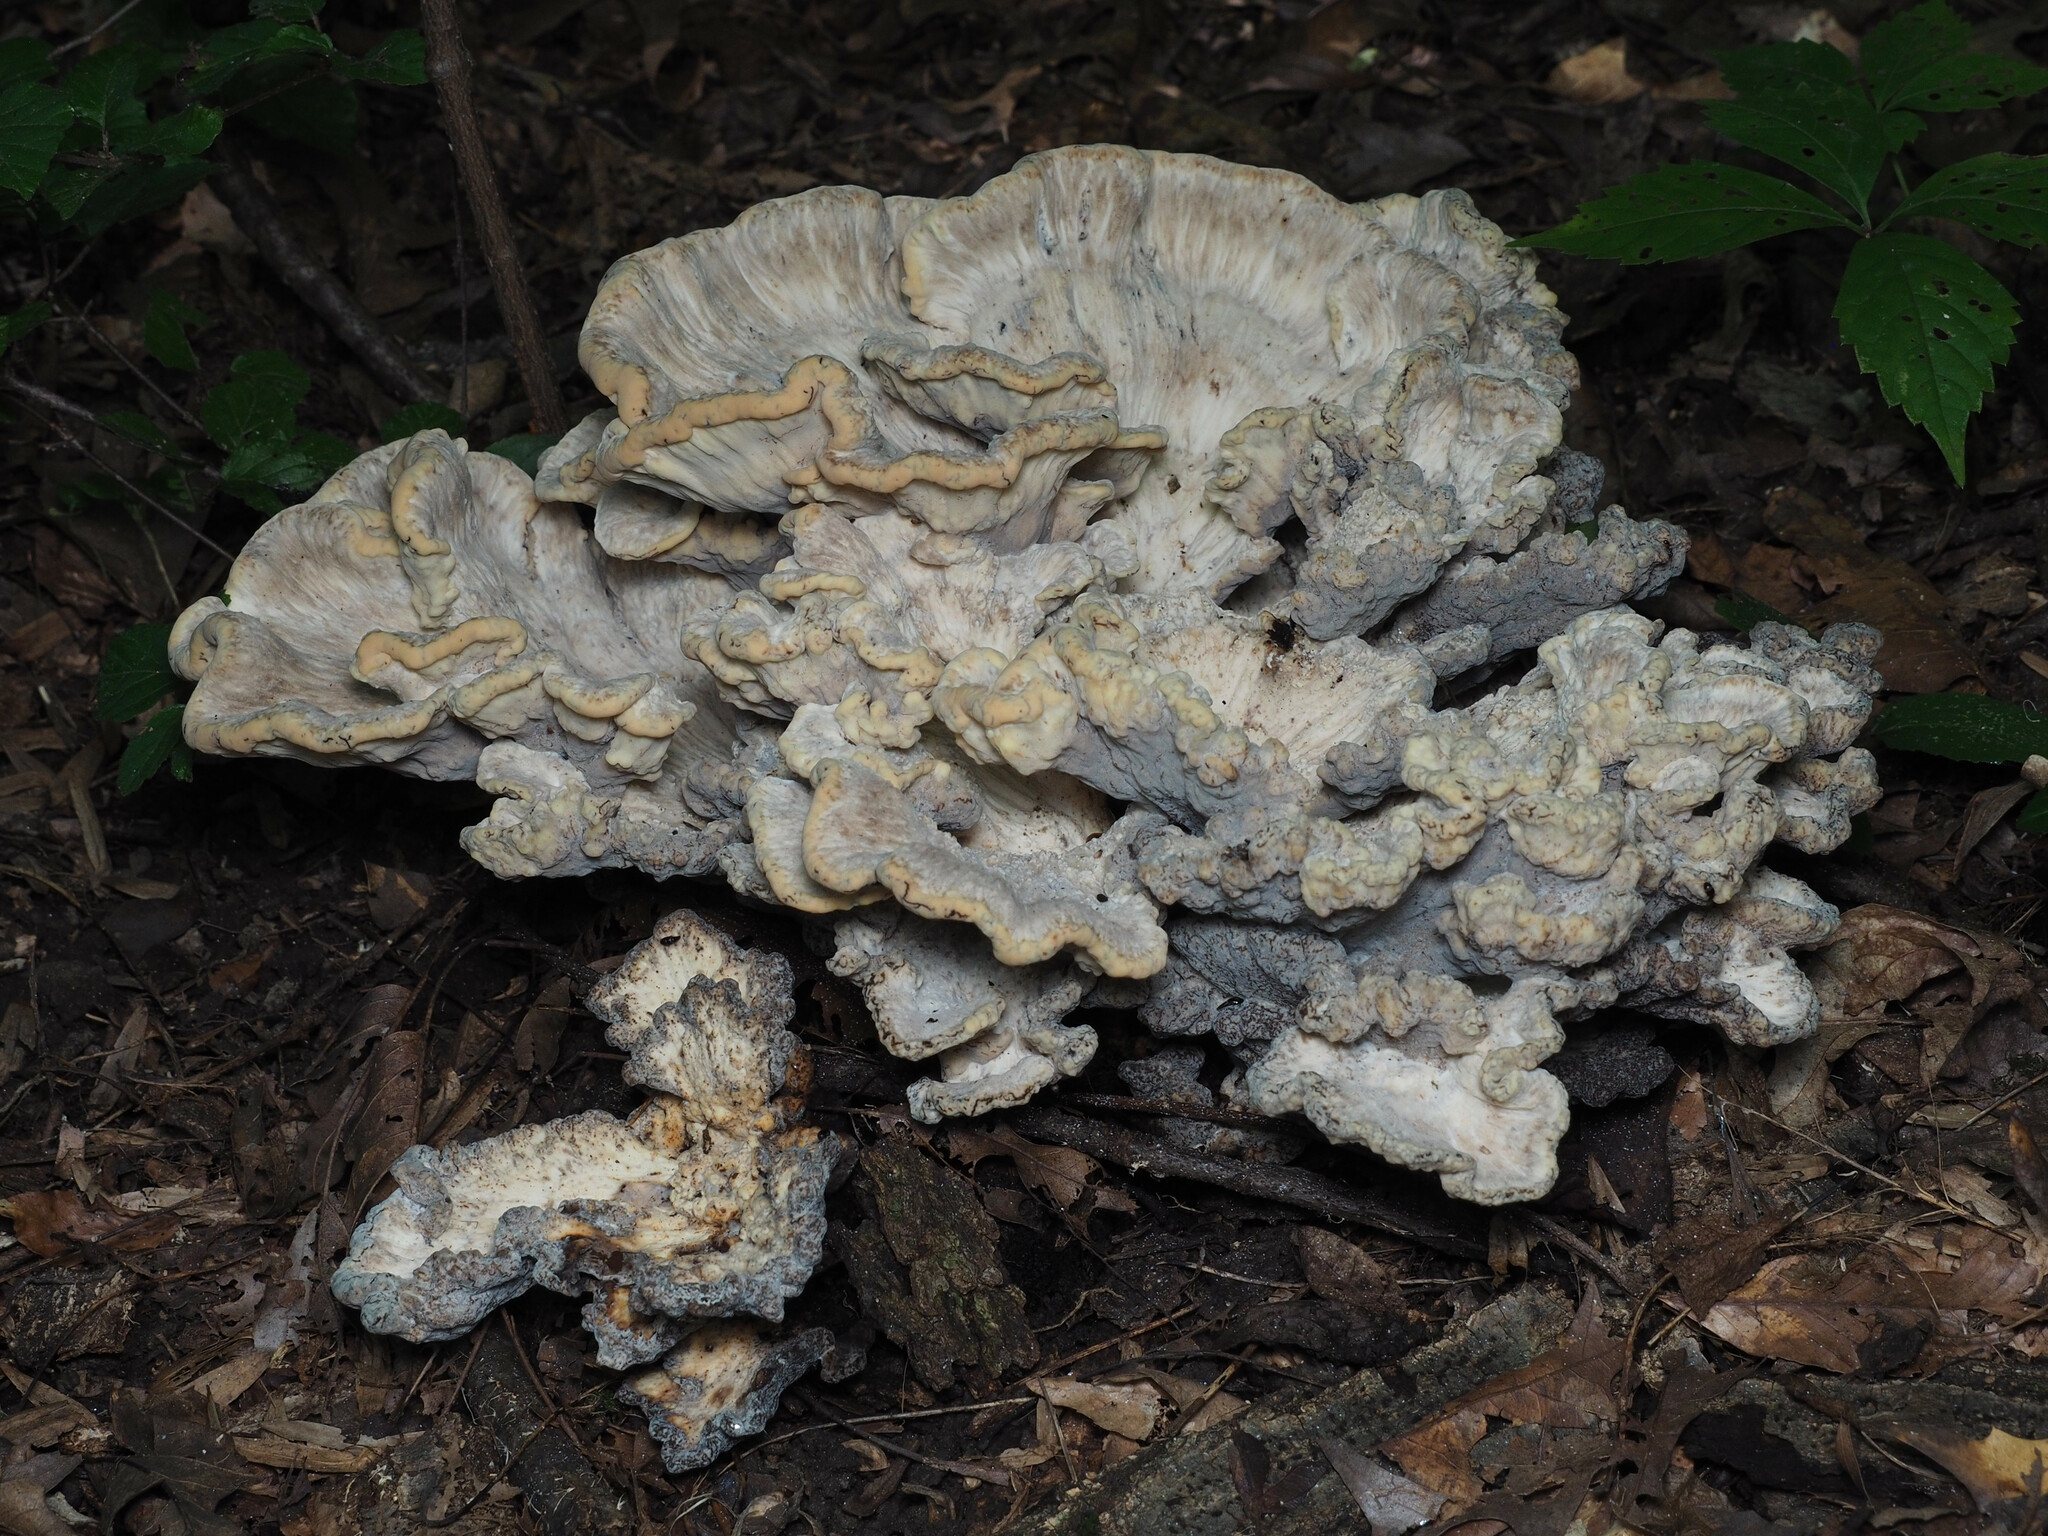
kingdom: Fungi
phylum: Basidiomycota
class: Agaricomycetes
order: Polyporales
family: Meripilaceae
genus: Meripilus
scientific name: Meripilus sumstinei
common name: Black-staining polypore
